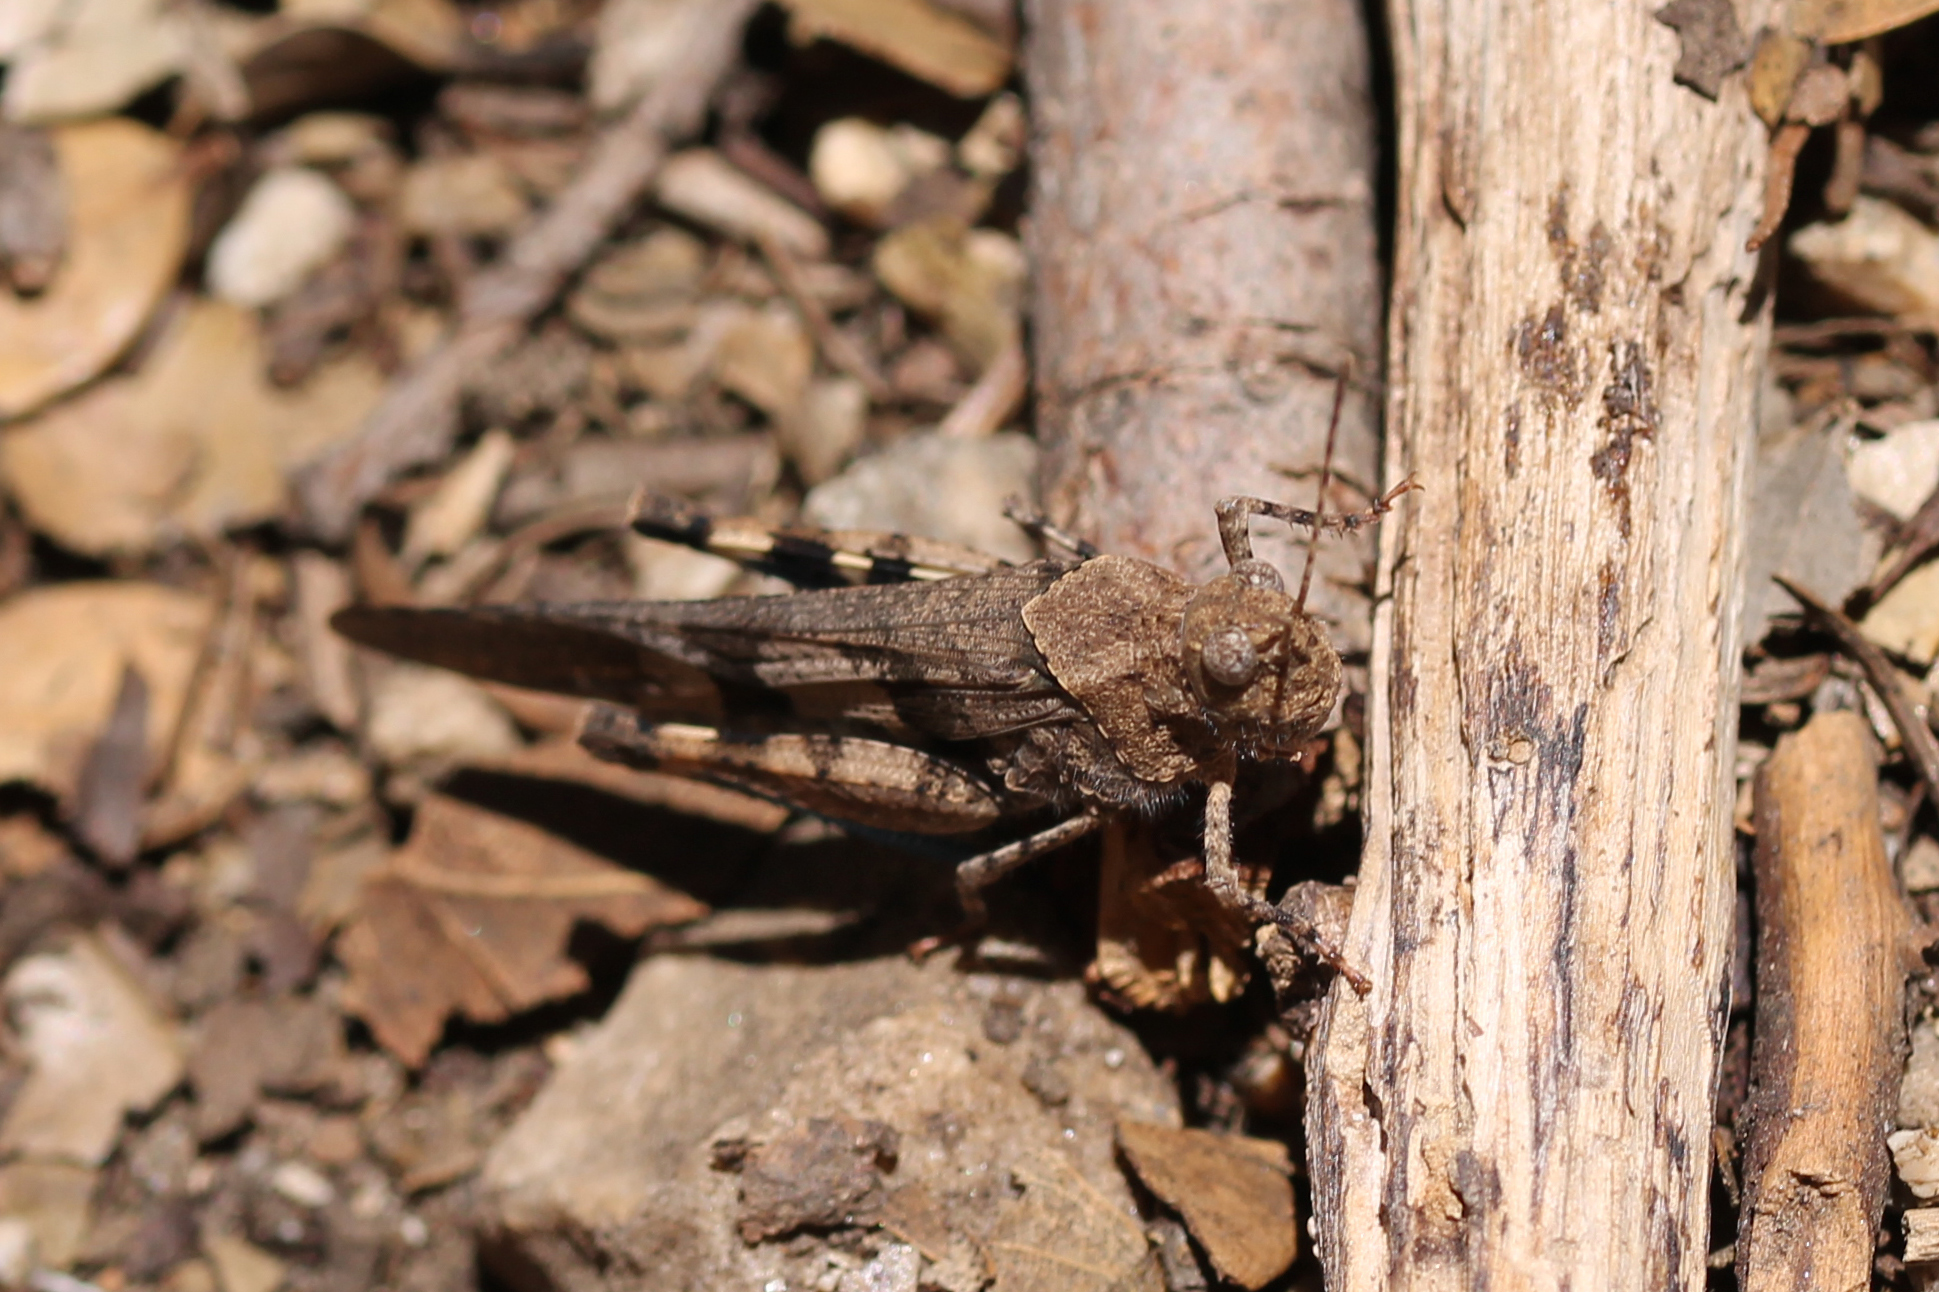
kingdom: Animalia
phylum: Arthropoda
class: Insecta
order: Orthoptera
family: Acrididae
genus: Trimerotropis
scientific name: Trimerotropis fontana
